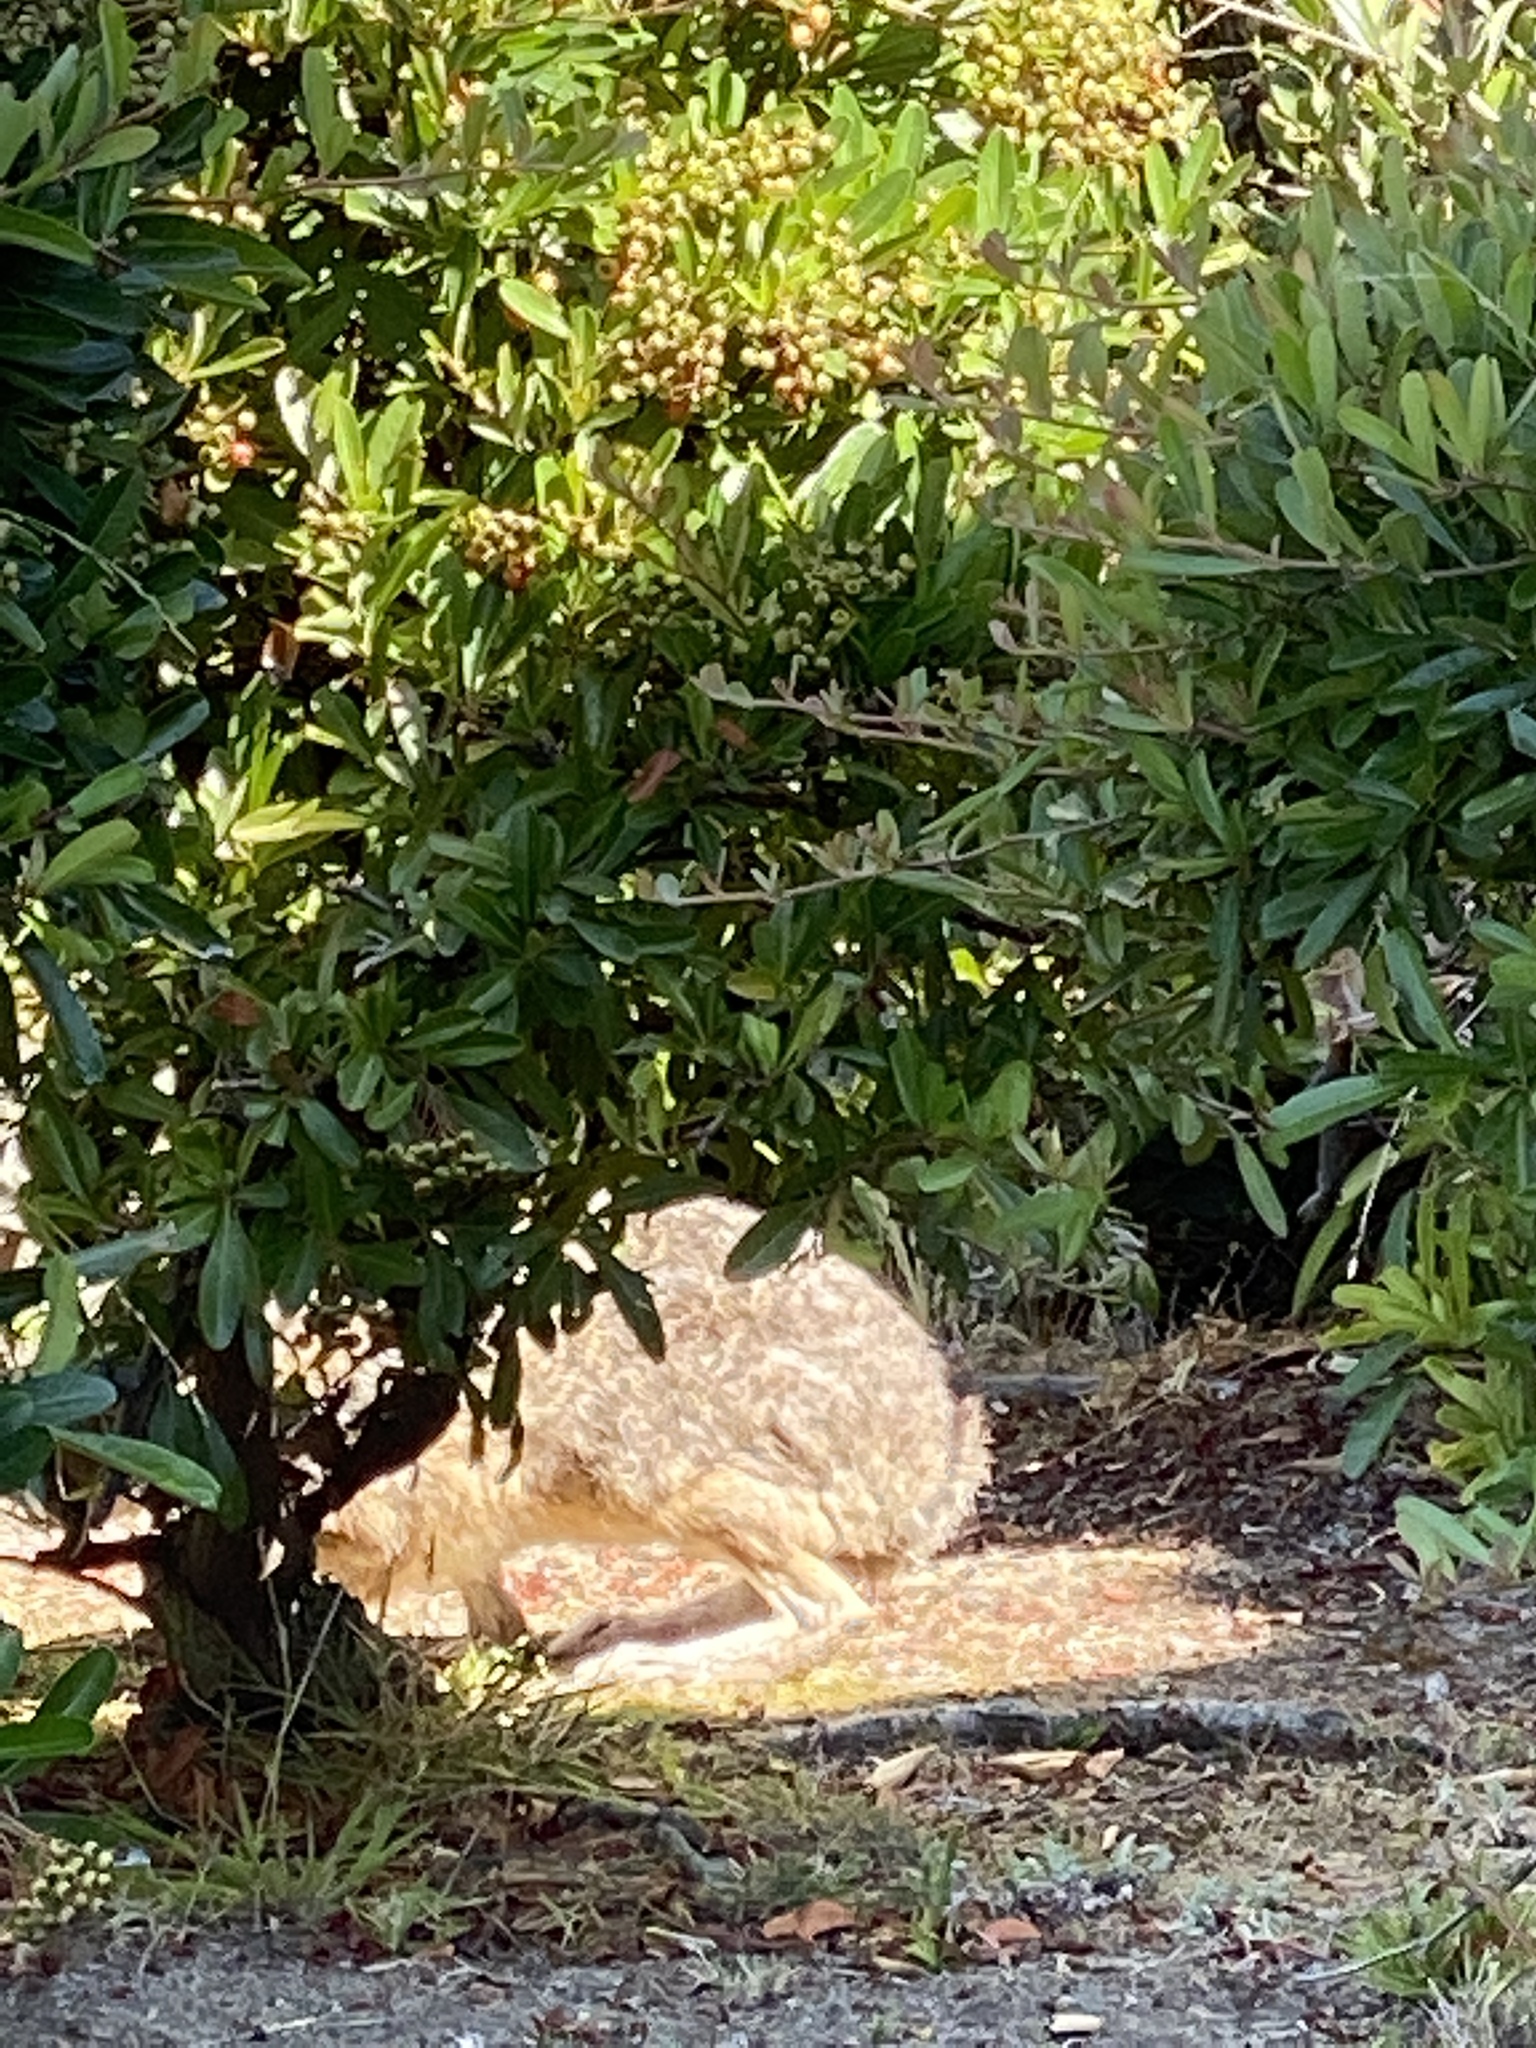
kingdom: Animalia
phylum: Chordata
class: Mammalia
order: Lagomorpha
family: Leporidae
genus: Lepus
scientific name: Lepus californicus
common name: Black-tailed jackrabbit
